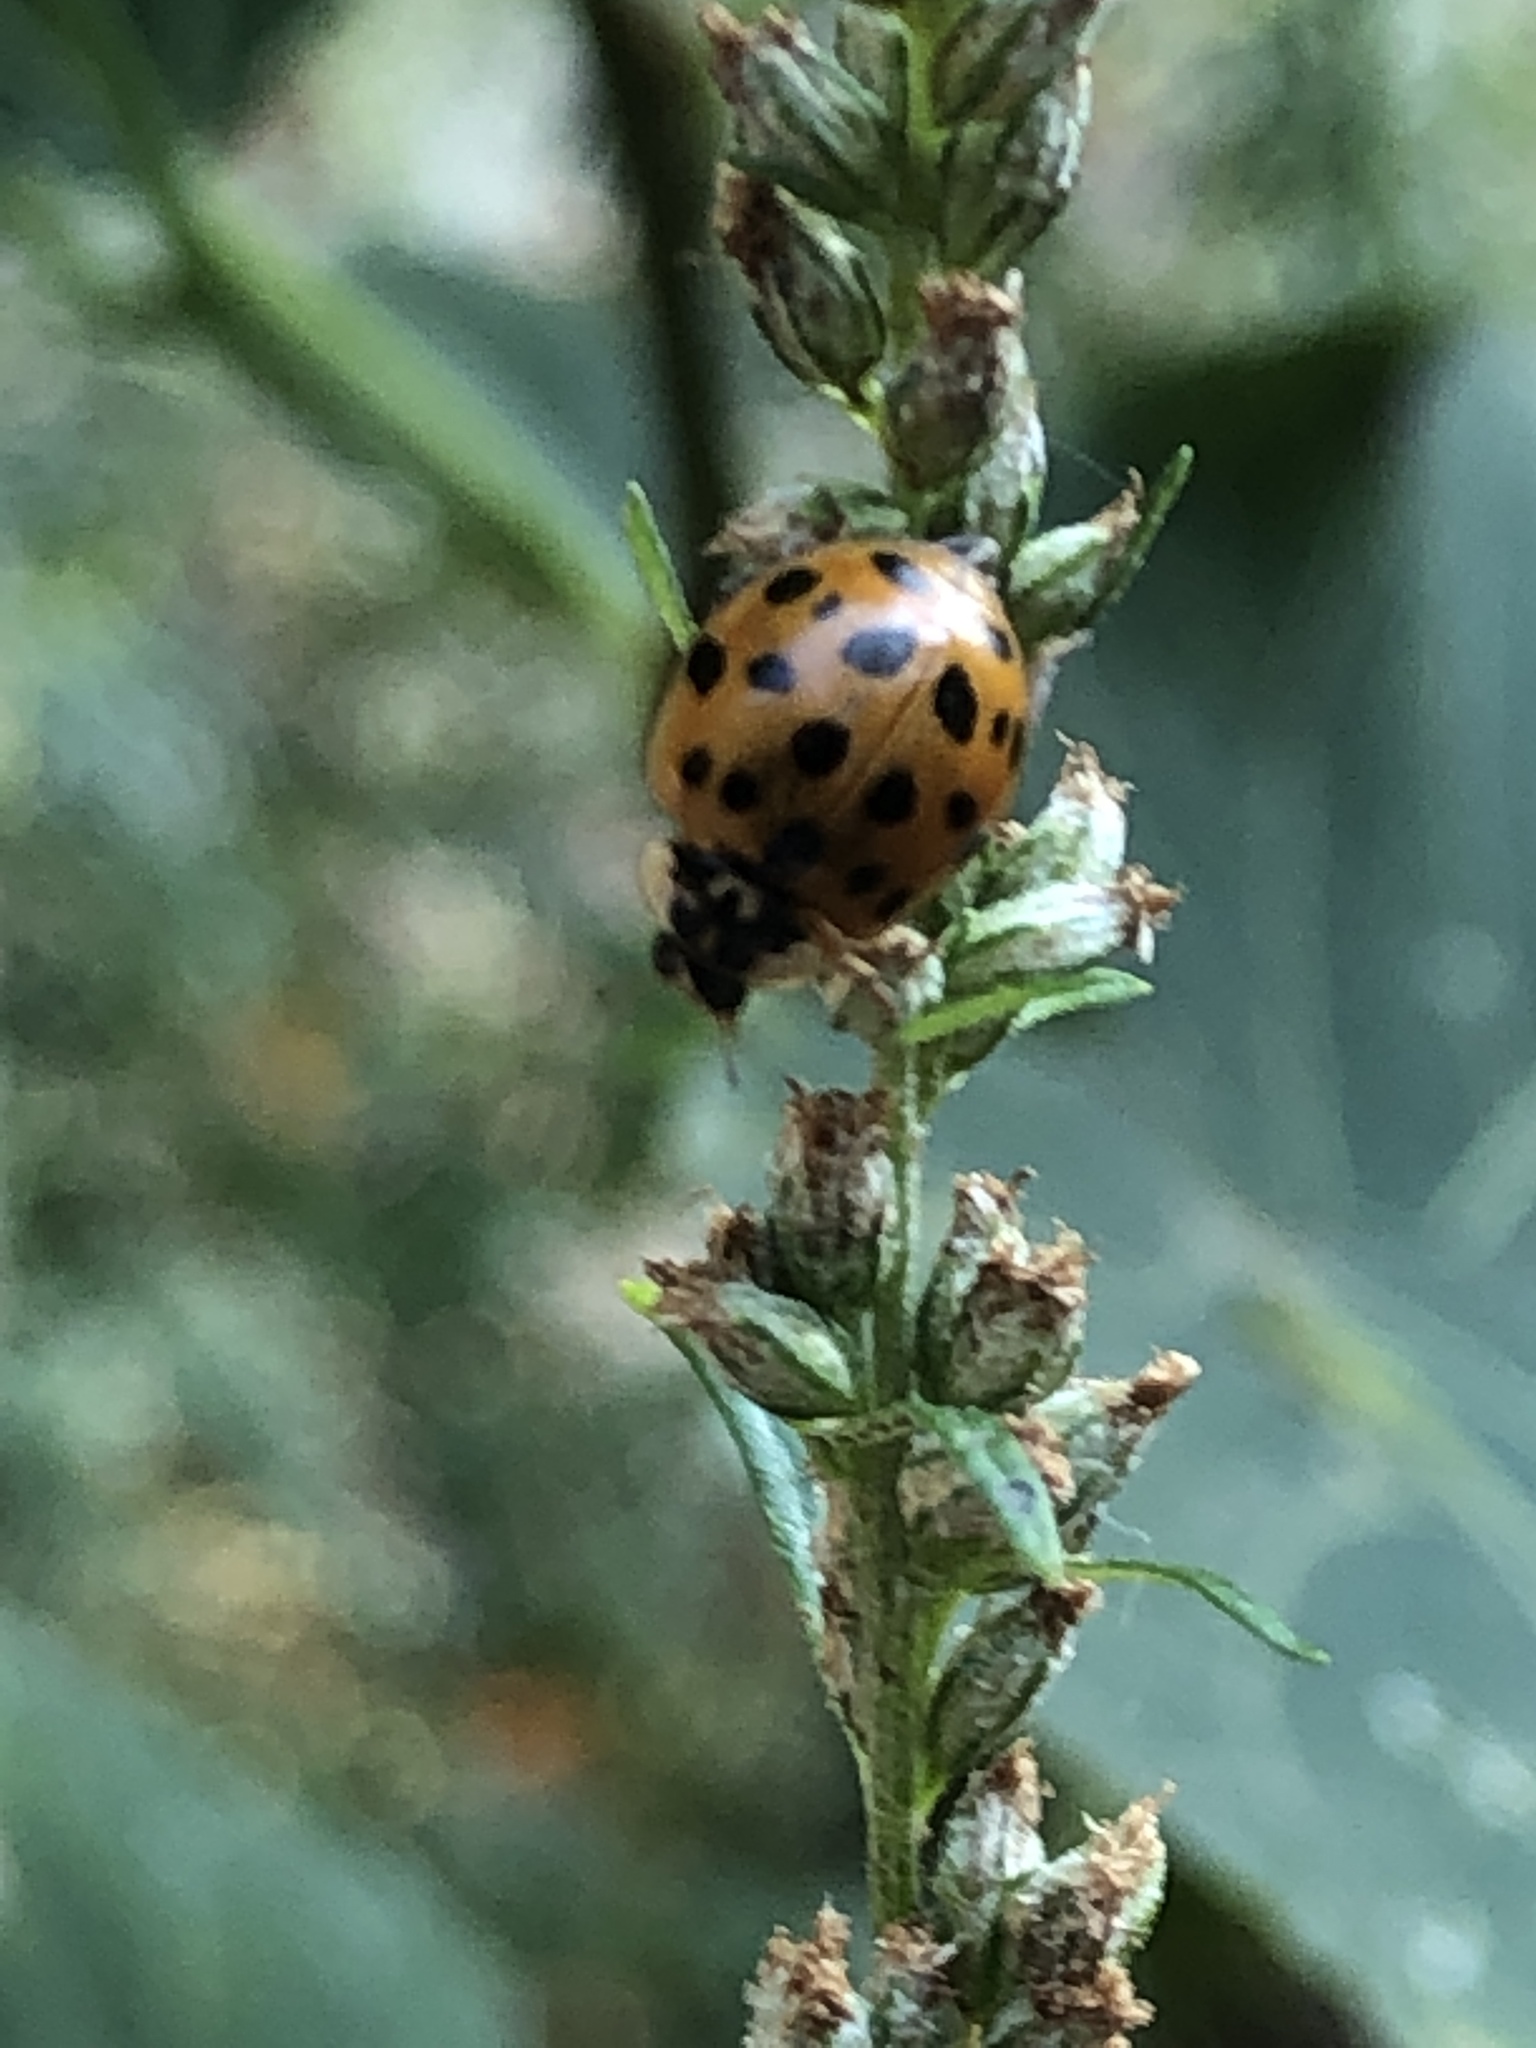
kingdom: Animalia
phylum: Arthropoda
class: Insecta
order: Coleoptera
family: Coccinellidae
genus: Harmonia
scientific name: Harmonia axyridis
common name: Harlequin ladybird
